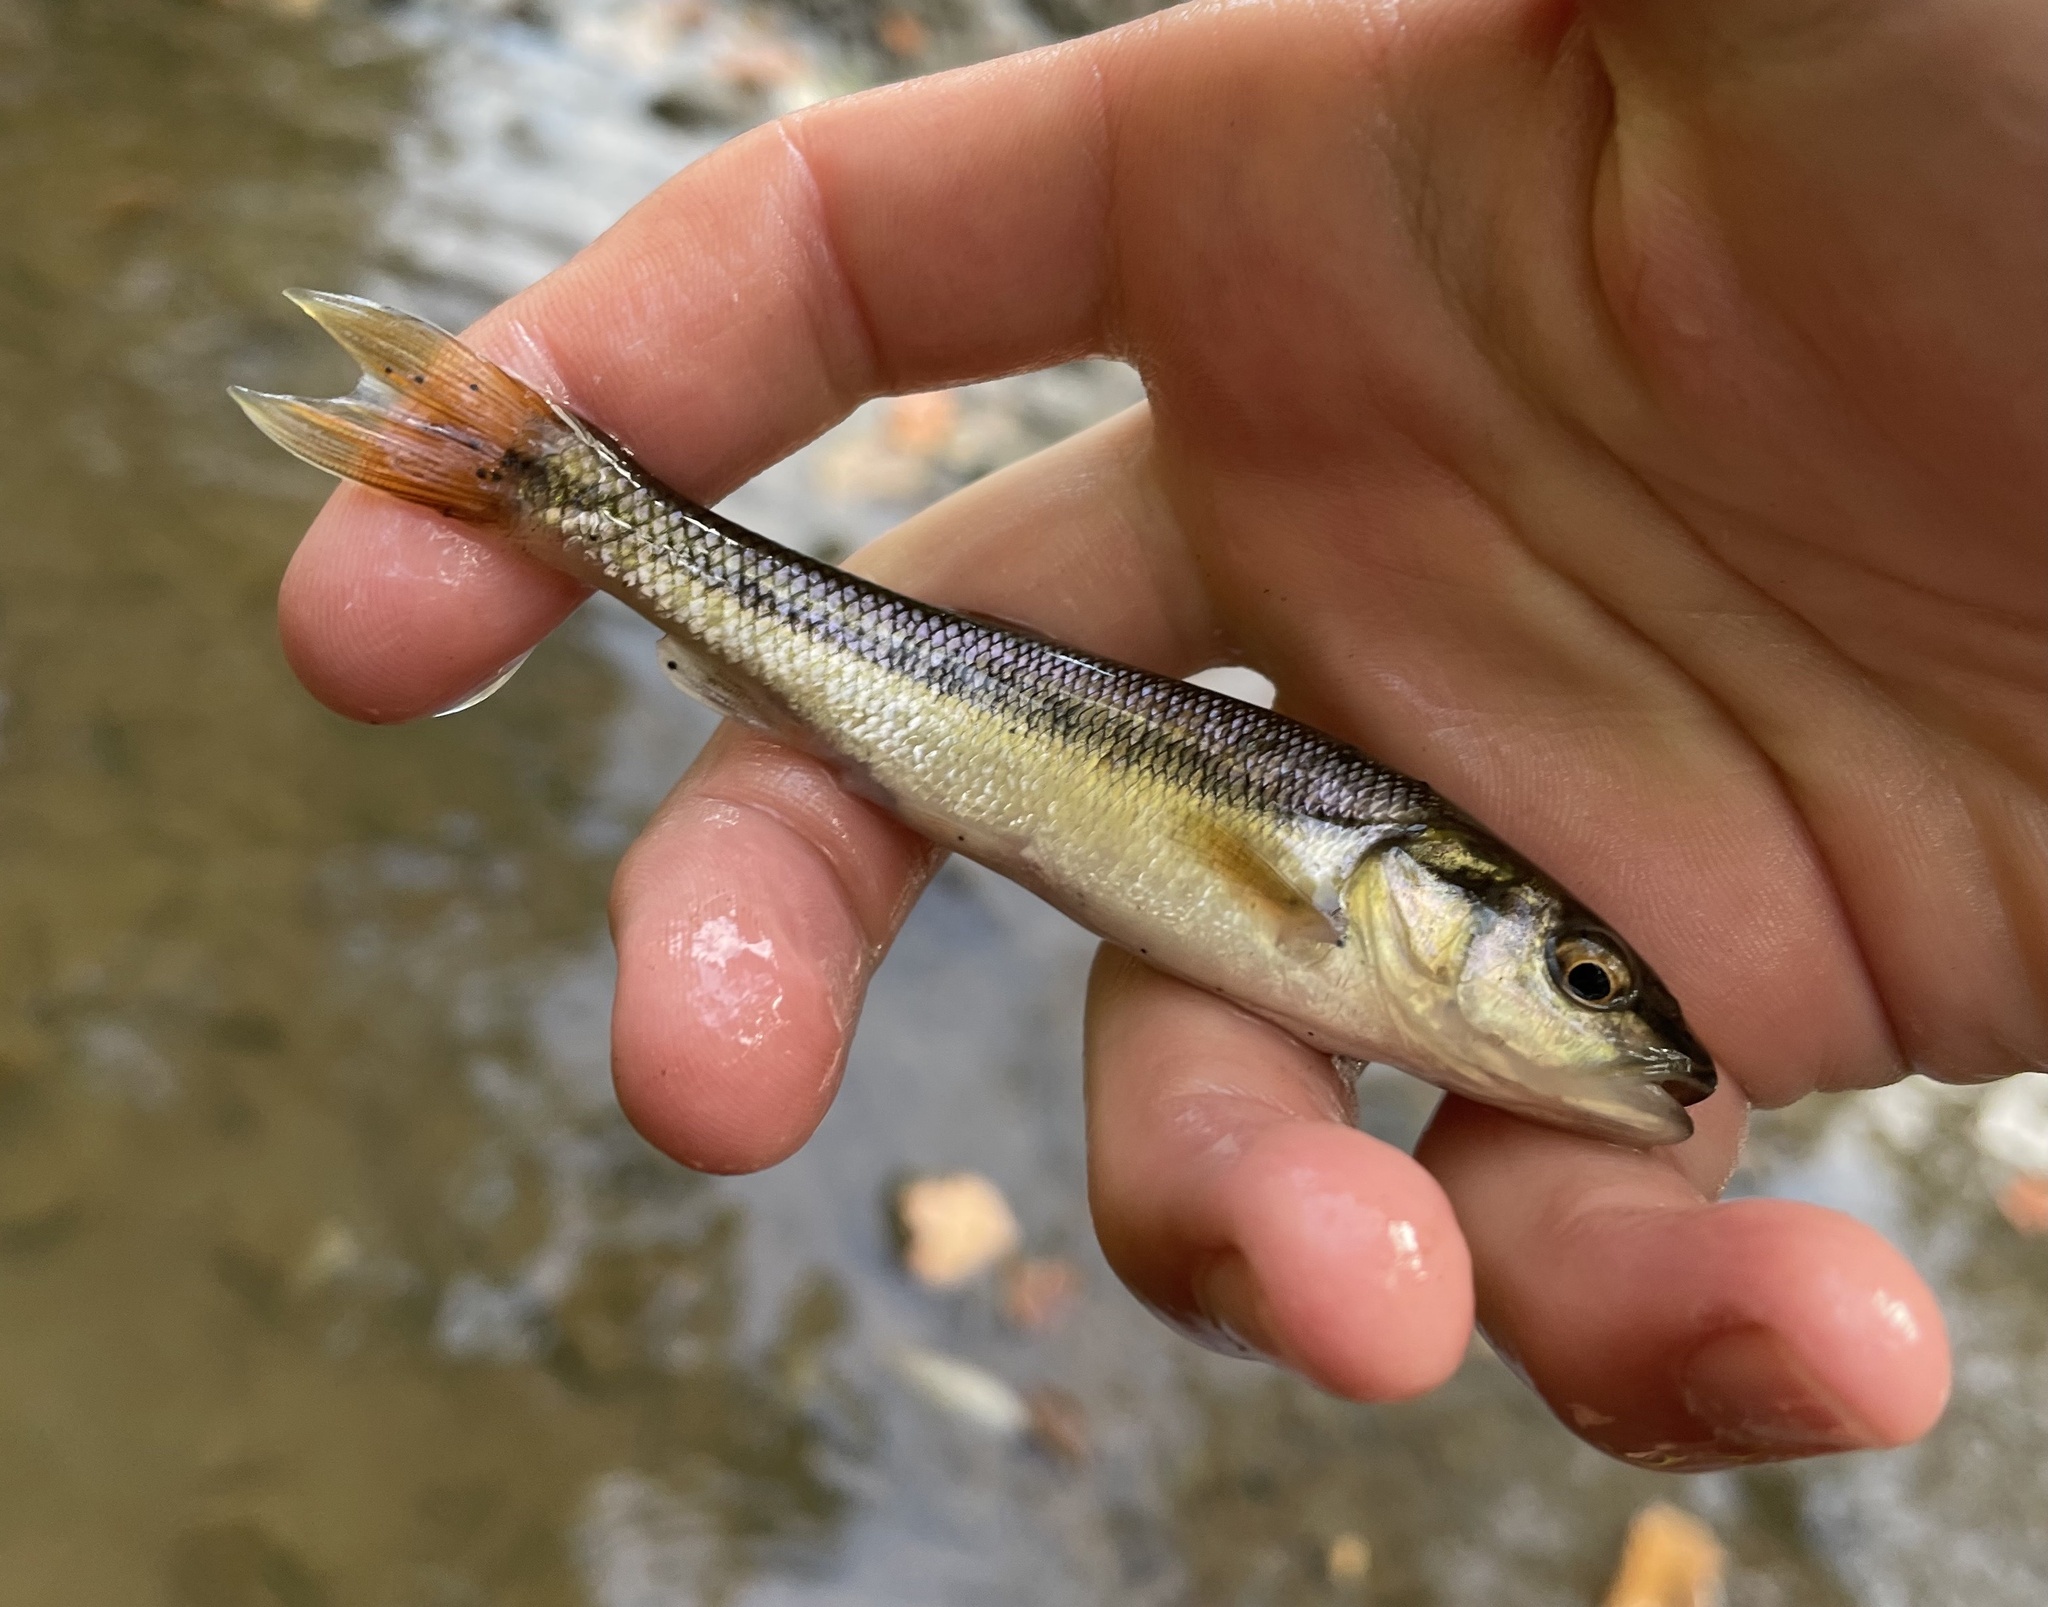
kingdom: Animalia
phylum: Chordata
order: Cypriniformes
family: Cyprinidae
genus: Semotilus
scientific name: Semotilus atromaculatus
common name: Creek chub
